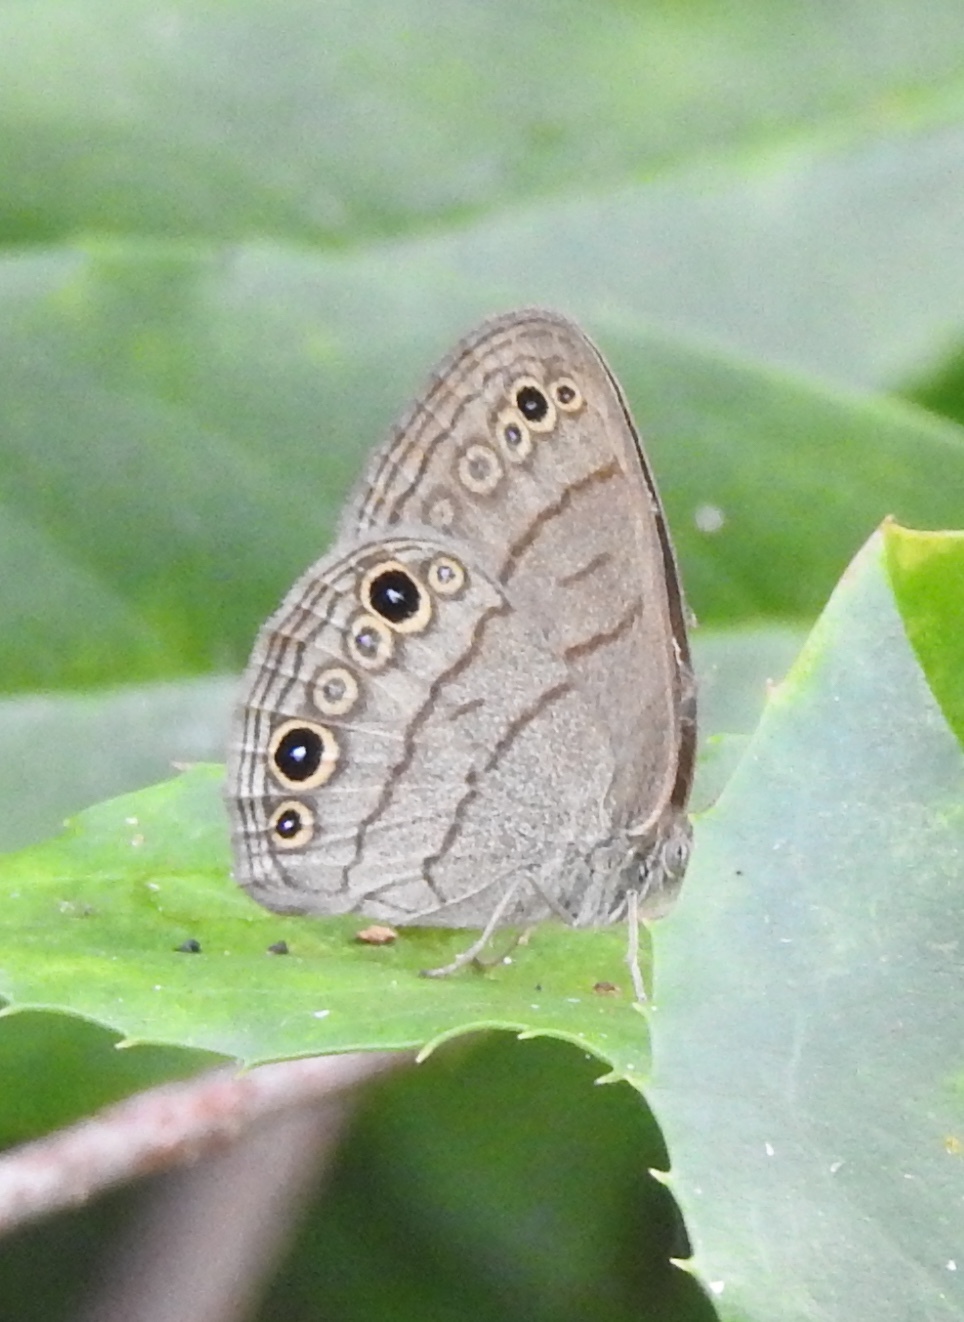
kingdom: Animalia
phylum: Arthropoda
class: Insecta
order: Lepidoptera
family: Nymphalidae
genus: Hermeuptychia
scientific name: Hermeuptychia hermes
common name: Hermes satyr
